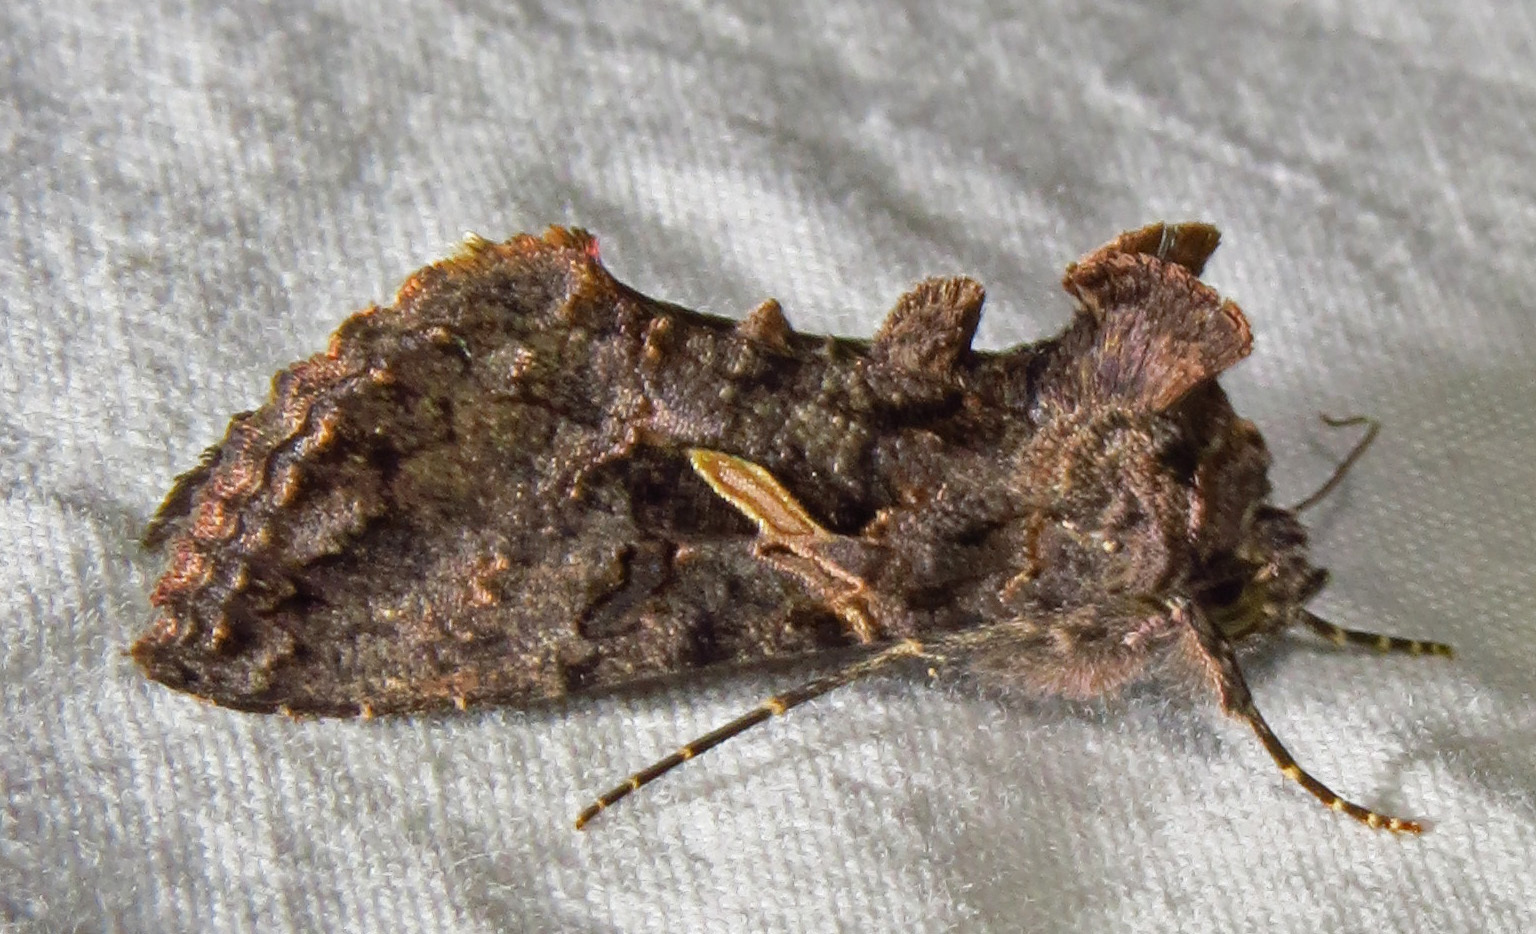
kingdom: Animalia
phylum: Arthropoda
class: Insecta
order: Lepidoptera
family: Noctuidae
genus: Ctenoplusia
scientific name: Ctenoplusia oxygramma
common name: Sharp-stigma looper moth
